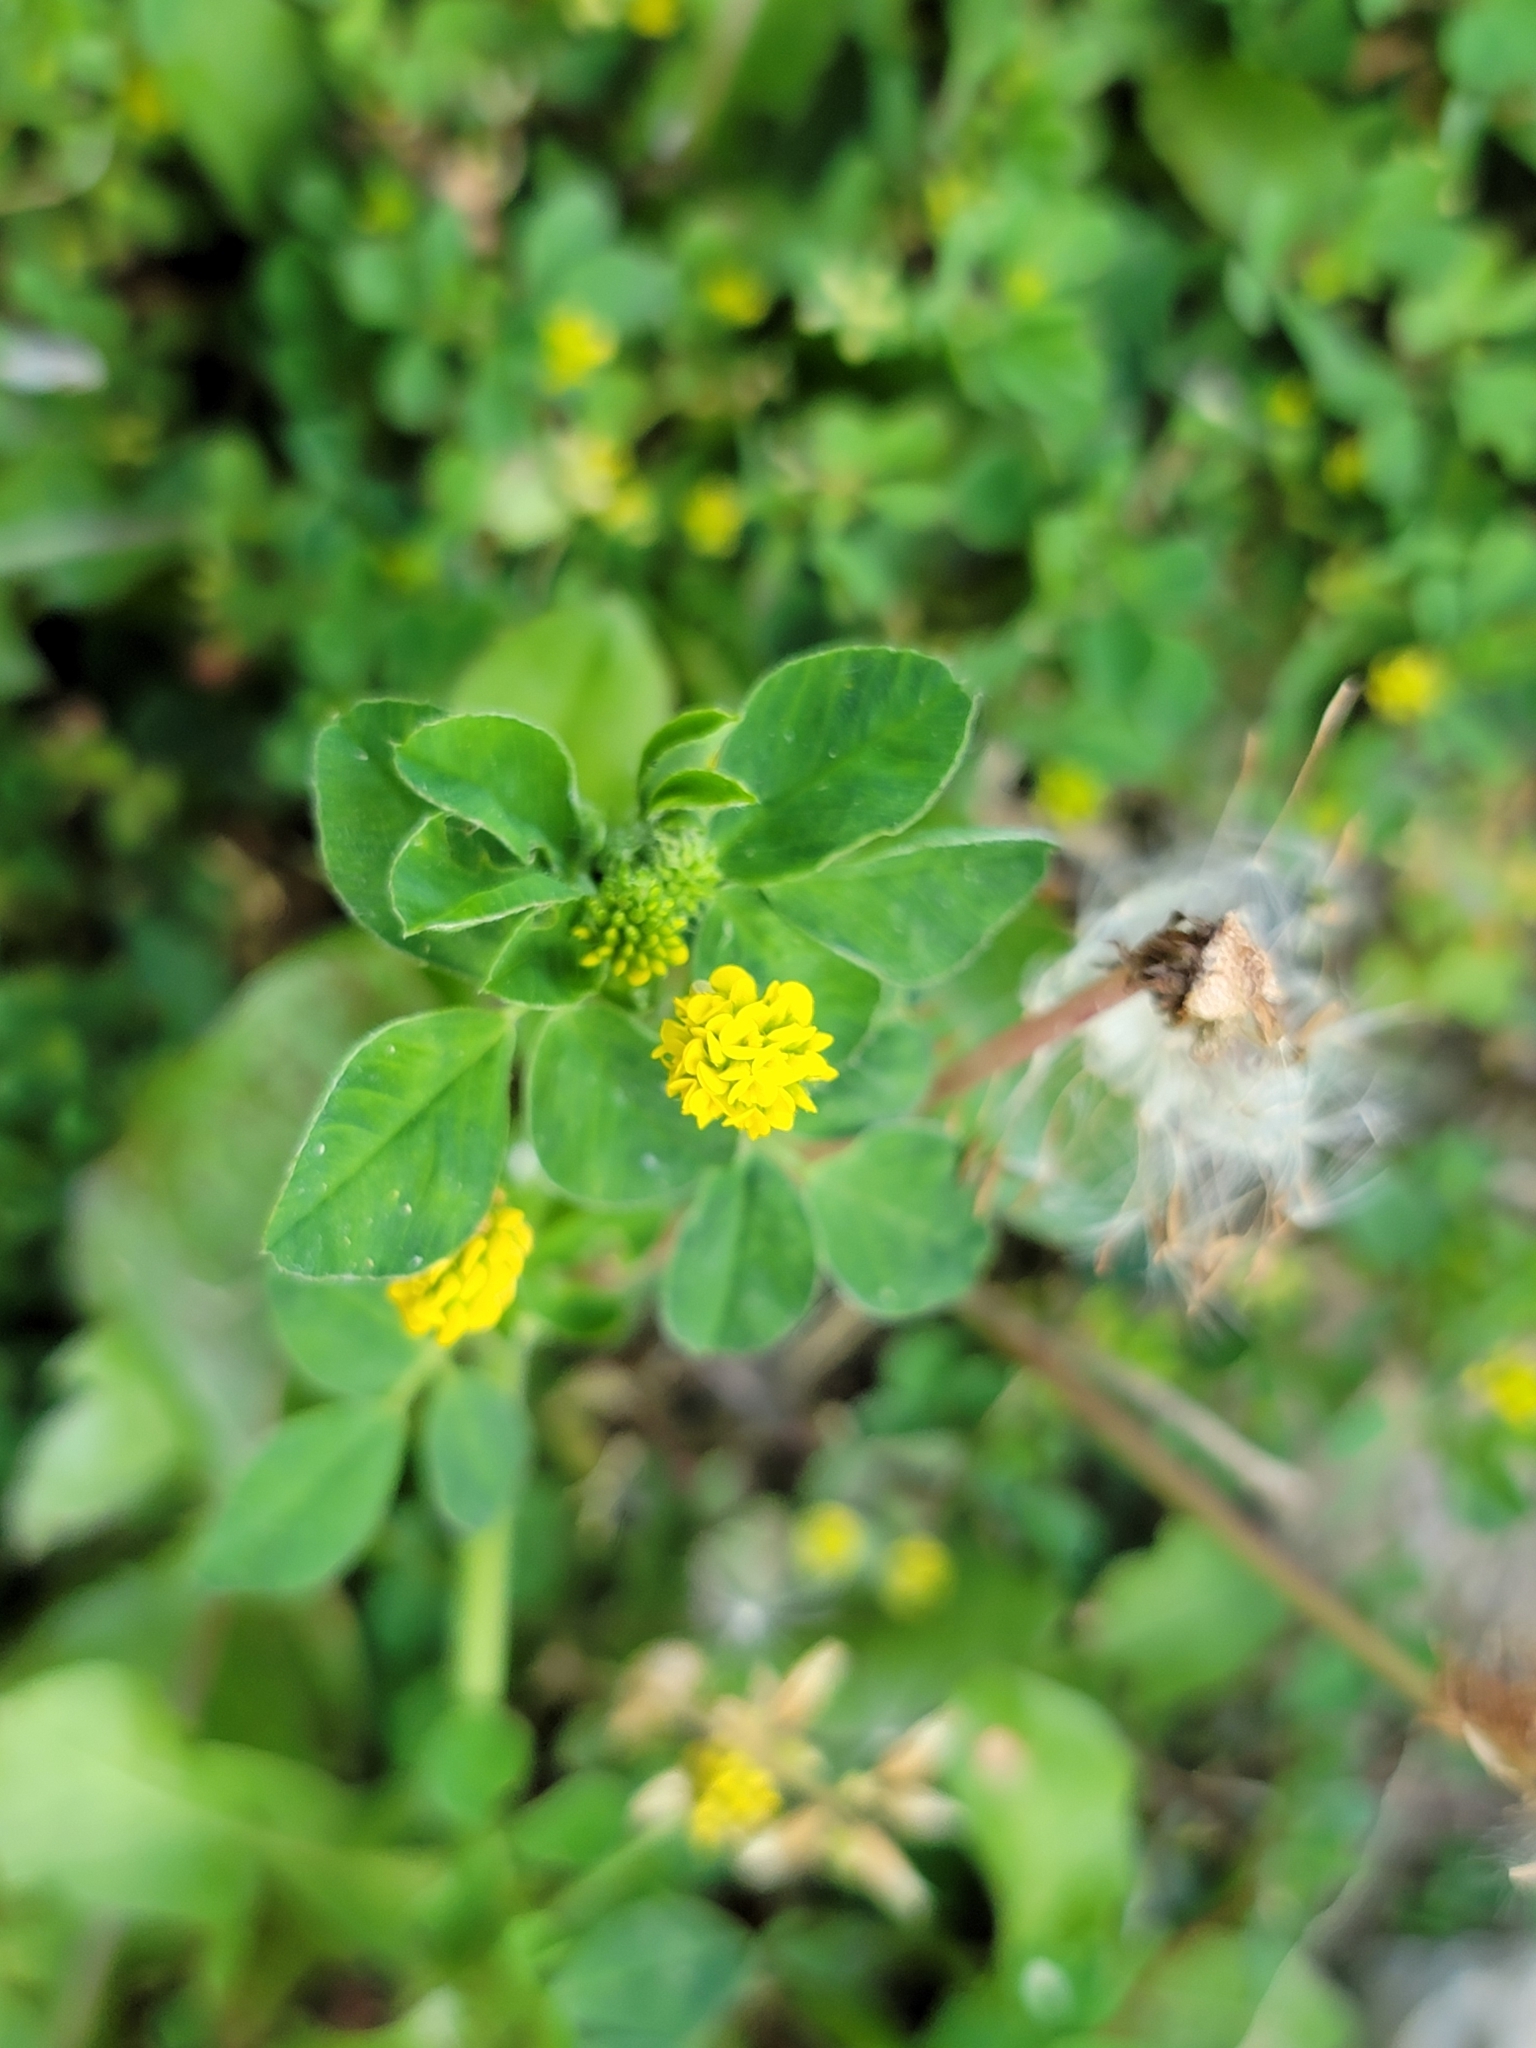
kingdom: Plantae
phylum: Tracheophyta
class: Magnoliopsida
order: Fabales
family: Fabaceae
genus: Medicago
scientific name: Medicago lupulina
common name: Black medick
